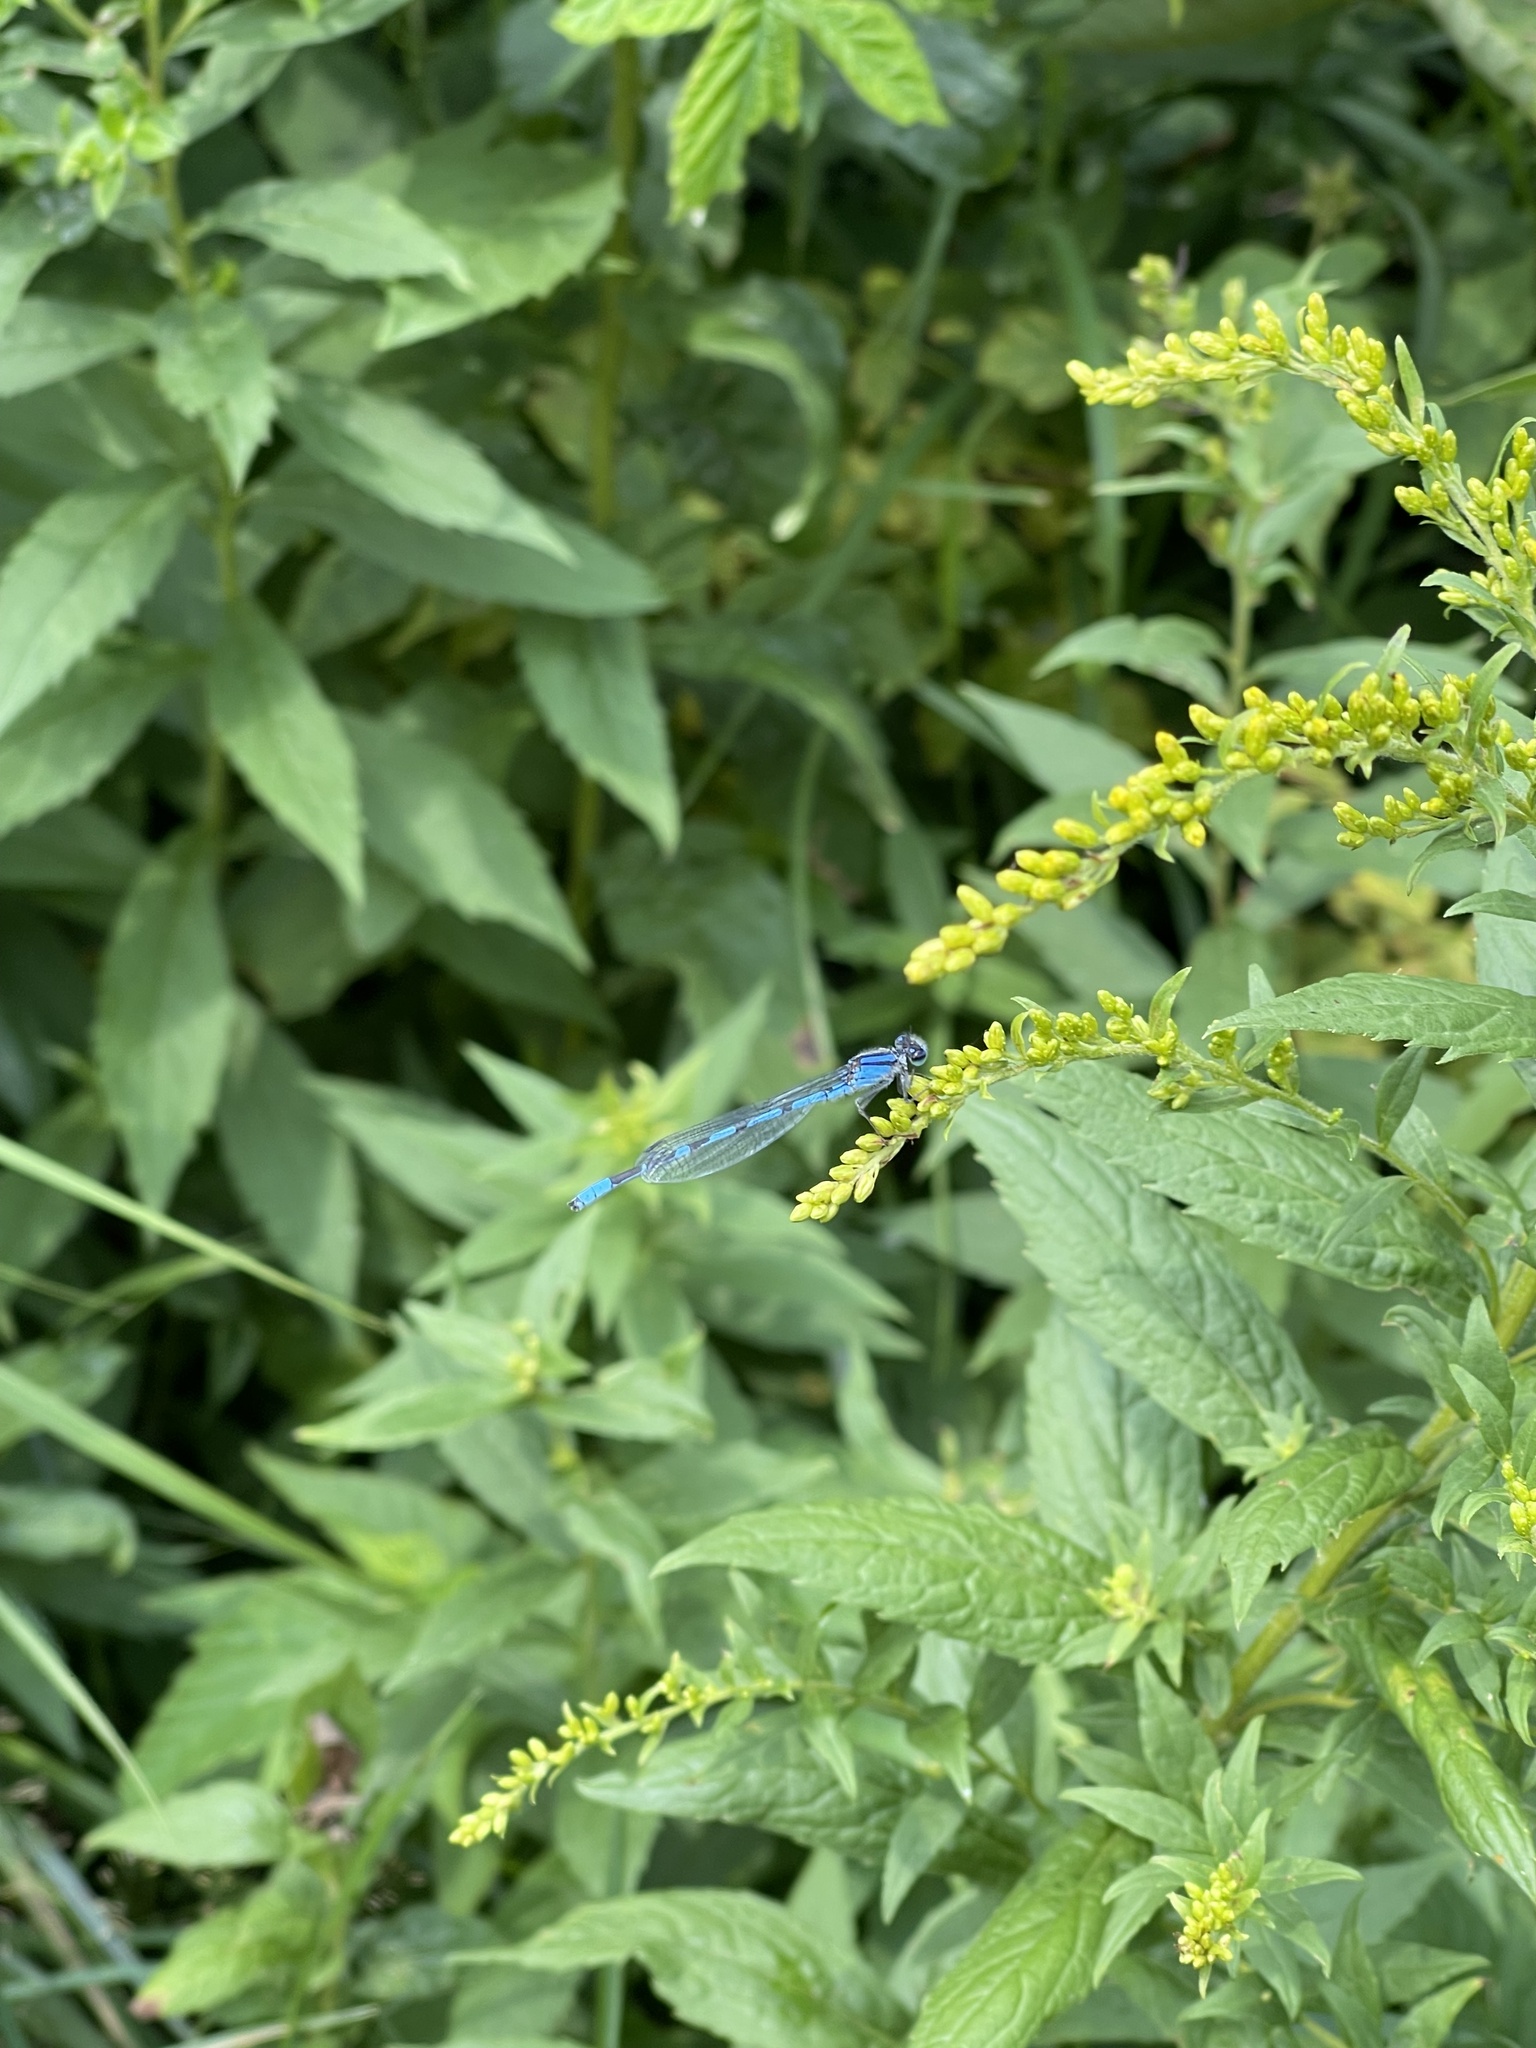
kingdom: Animalia
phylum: Arthropoda
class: Insecta
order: Odonata
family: Coenagrionidae
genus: Enallagma
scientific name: Enallagma civile
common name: Damselfly
